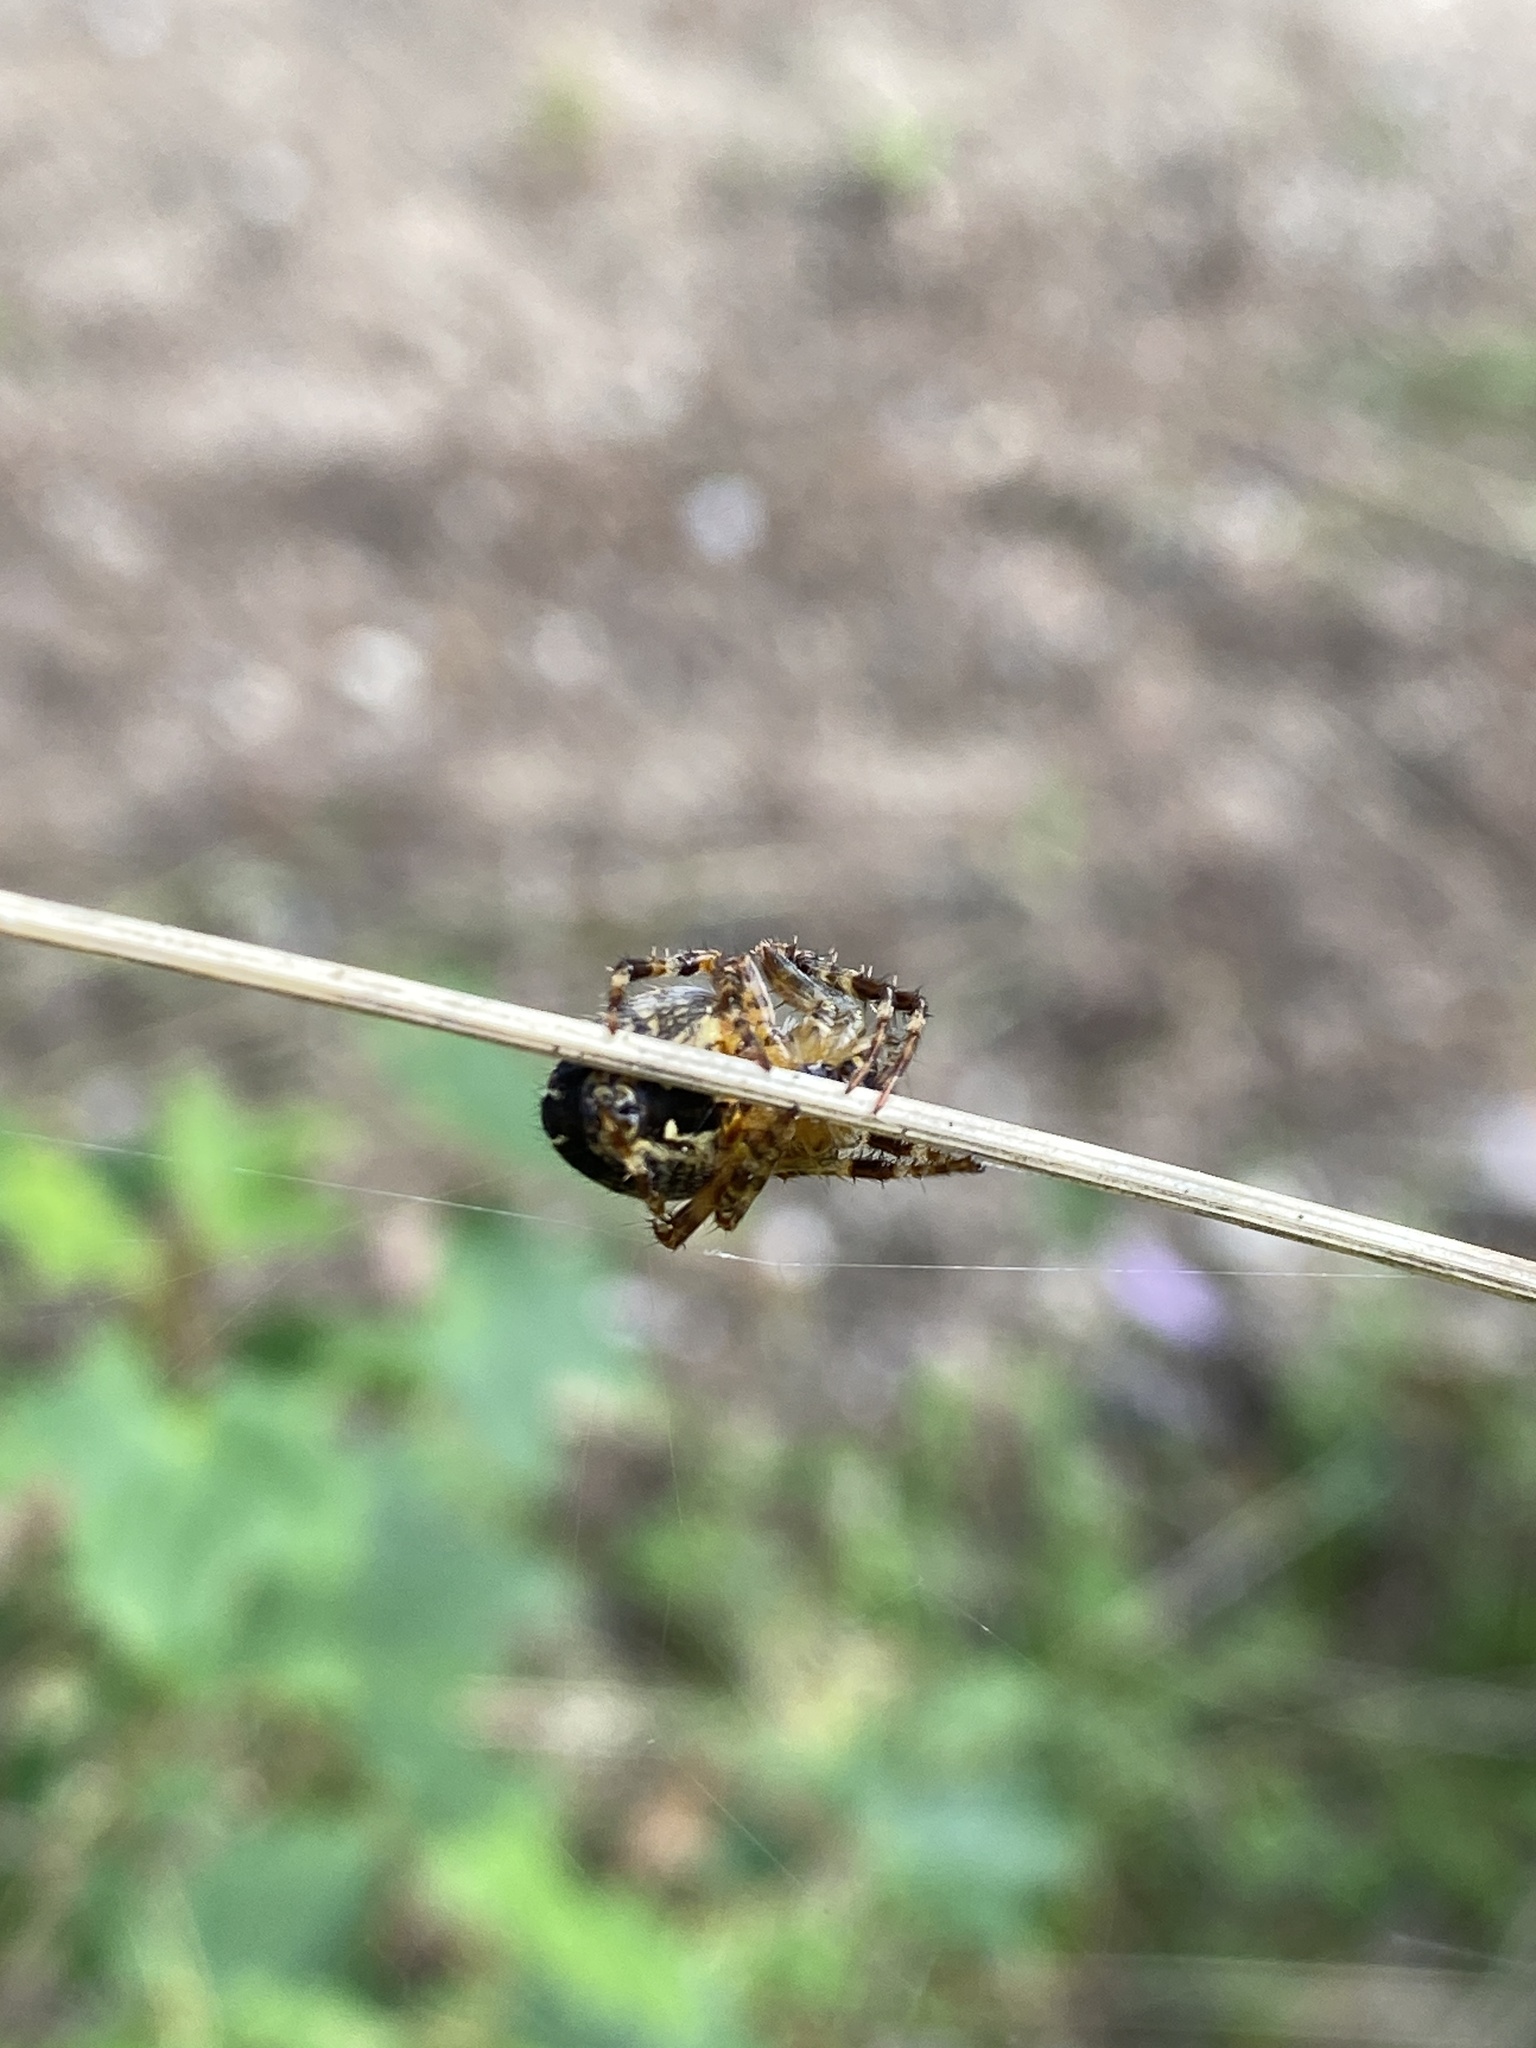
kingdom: Animalia
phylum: Arthropoda
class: Arachnida
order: Araneae
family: Araneidae
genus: Araneus
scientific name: Araneus diadematus
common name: Cross orbweaver
